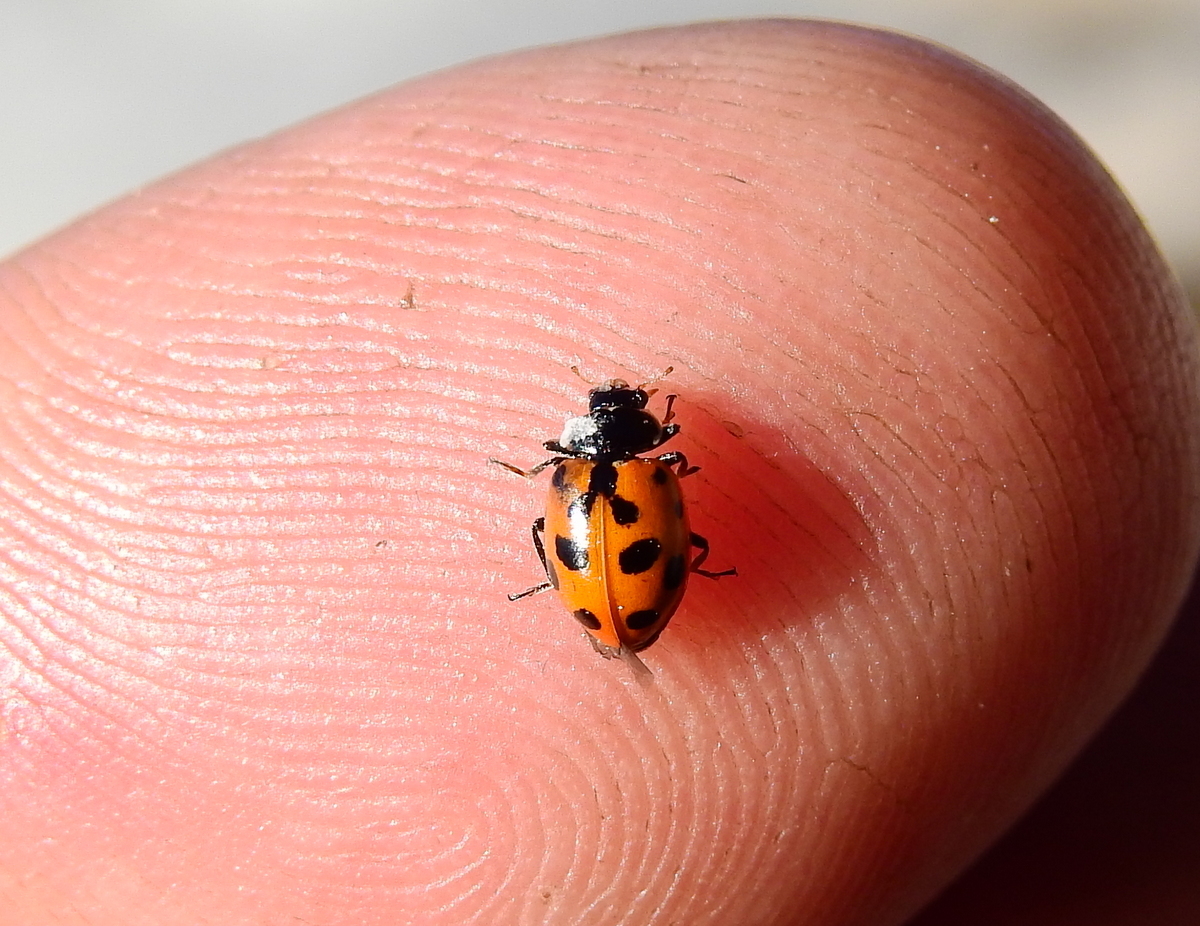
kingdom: Animalia
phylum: Arthropoda
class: Insecta
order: Coleoptera
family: Coccinellidae
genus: Hippodamia
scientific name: Hippodamia variegata
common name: Ladybird beetle
